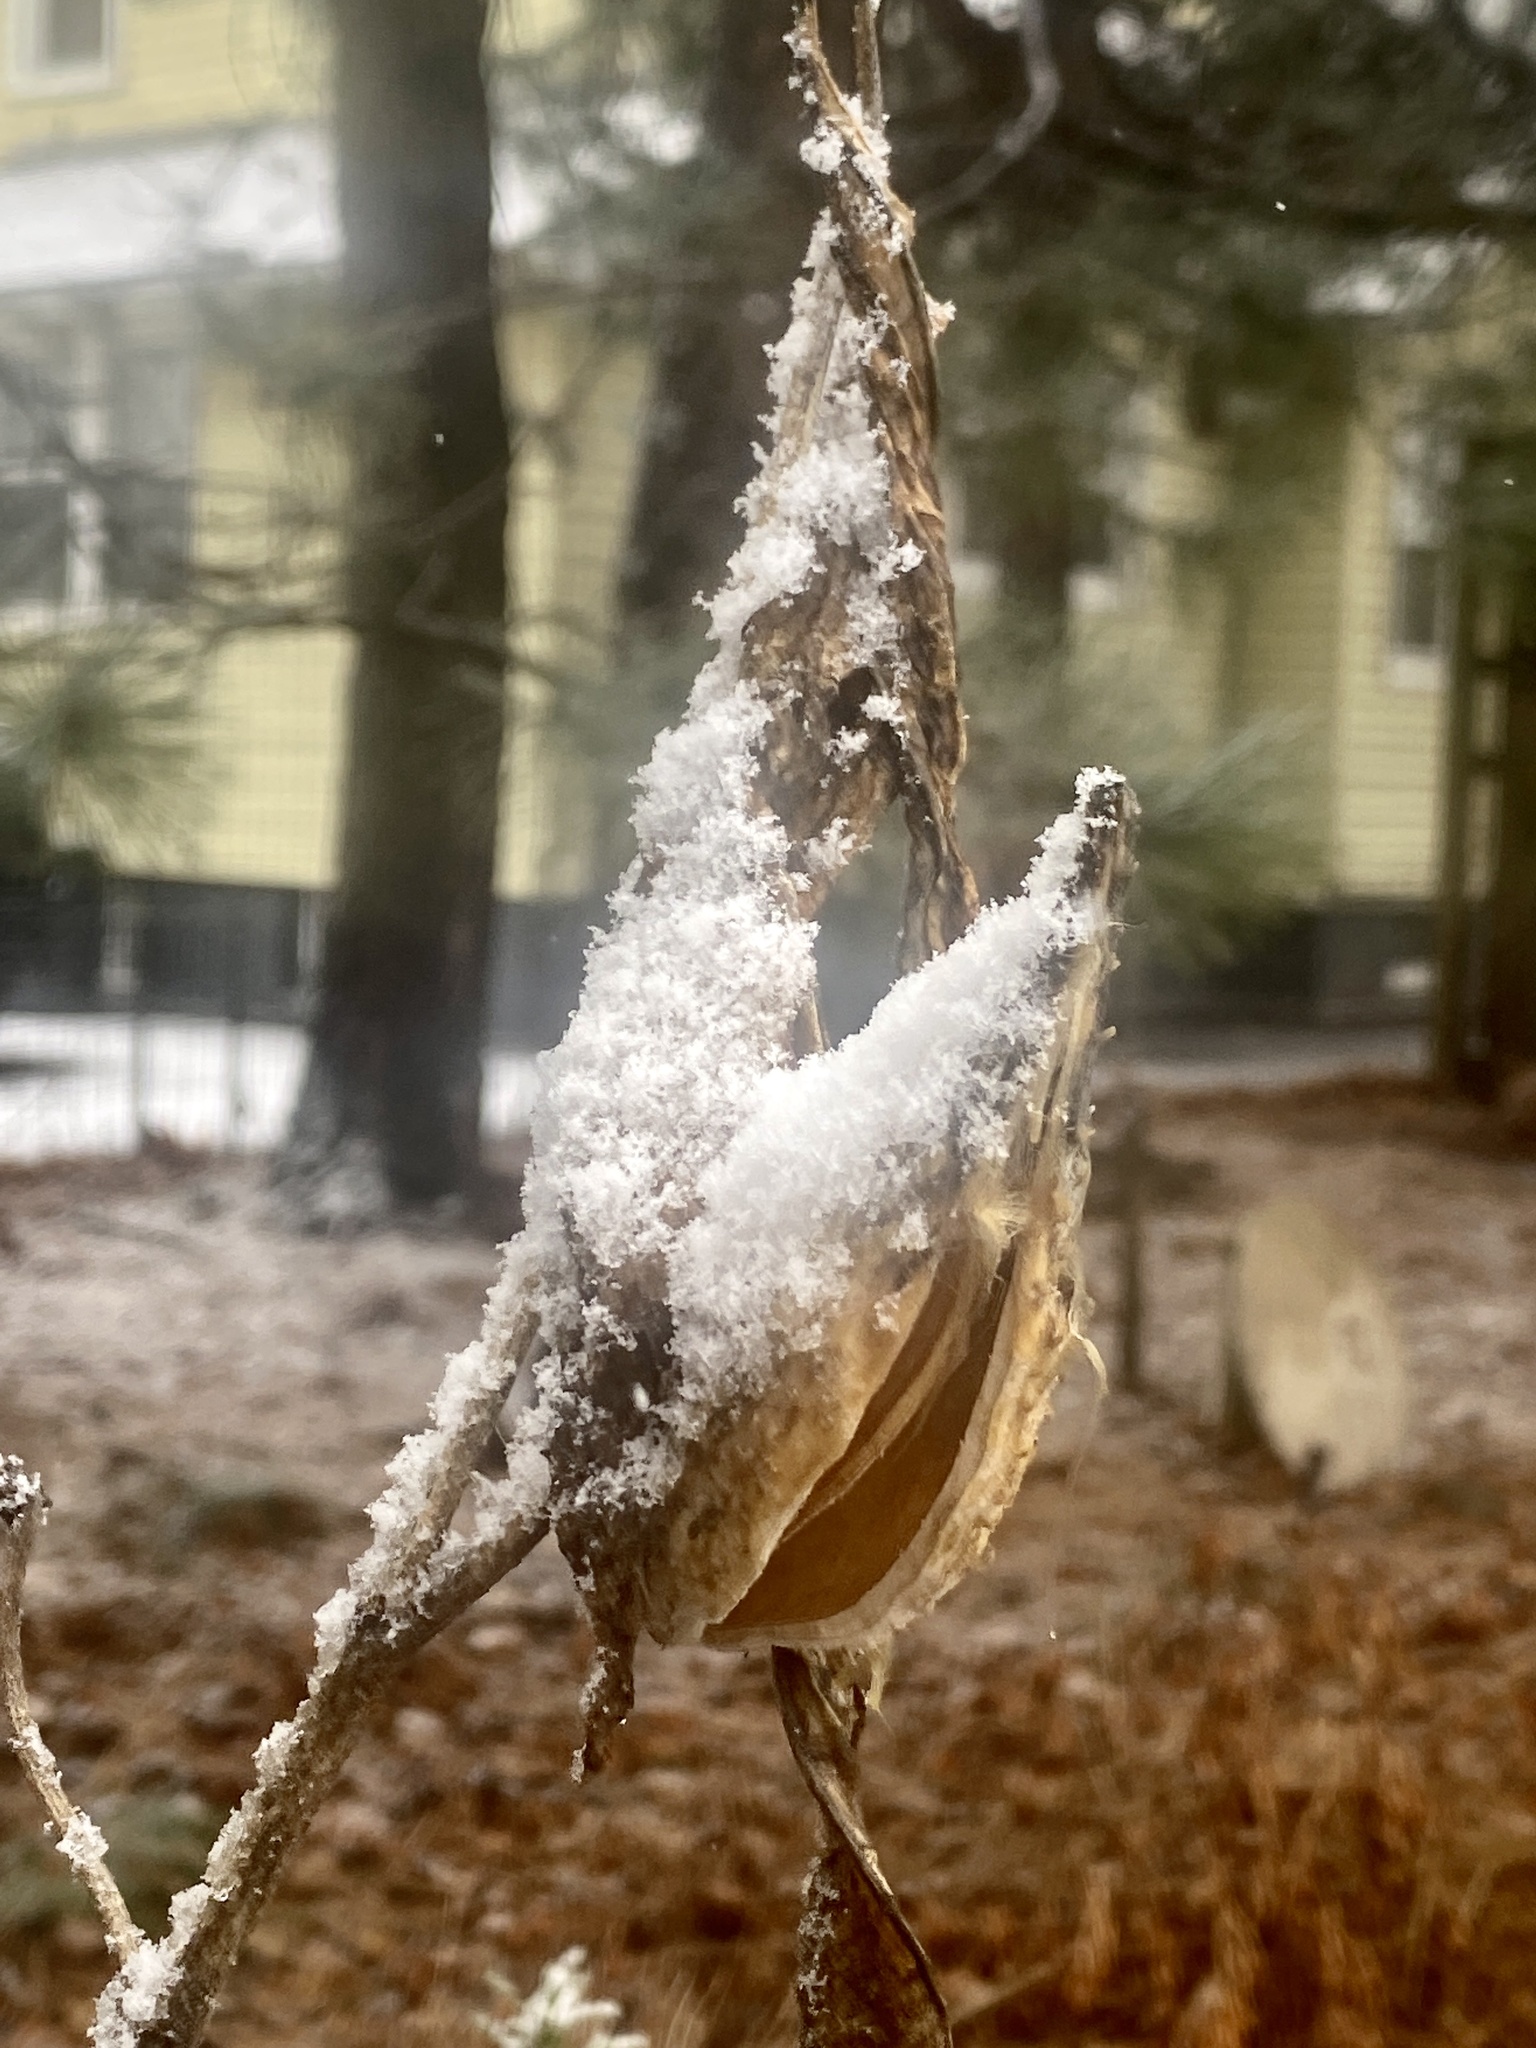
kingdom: Plantae
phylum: Tracheophyta
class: Magnoliopsida
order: Gentianales
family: Apocynaceae
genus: Asclepias
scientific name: Asclepias syriaca
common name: Common milkweed
